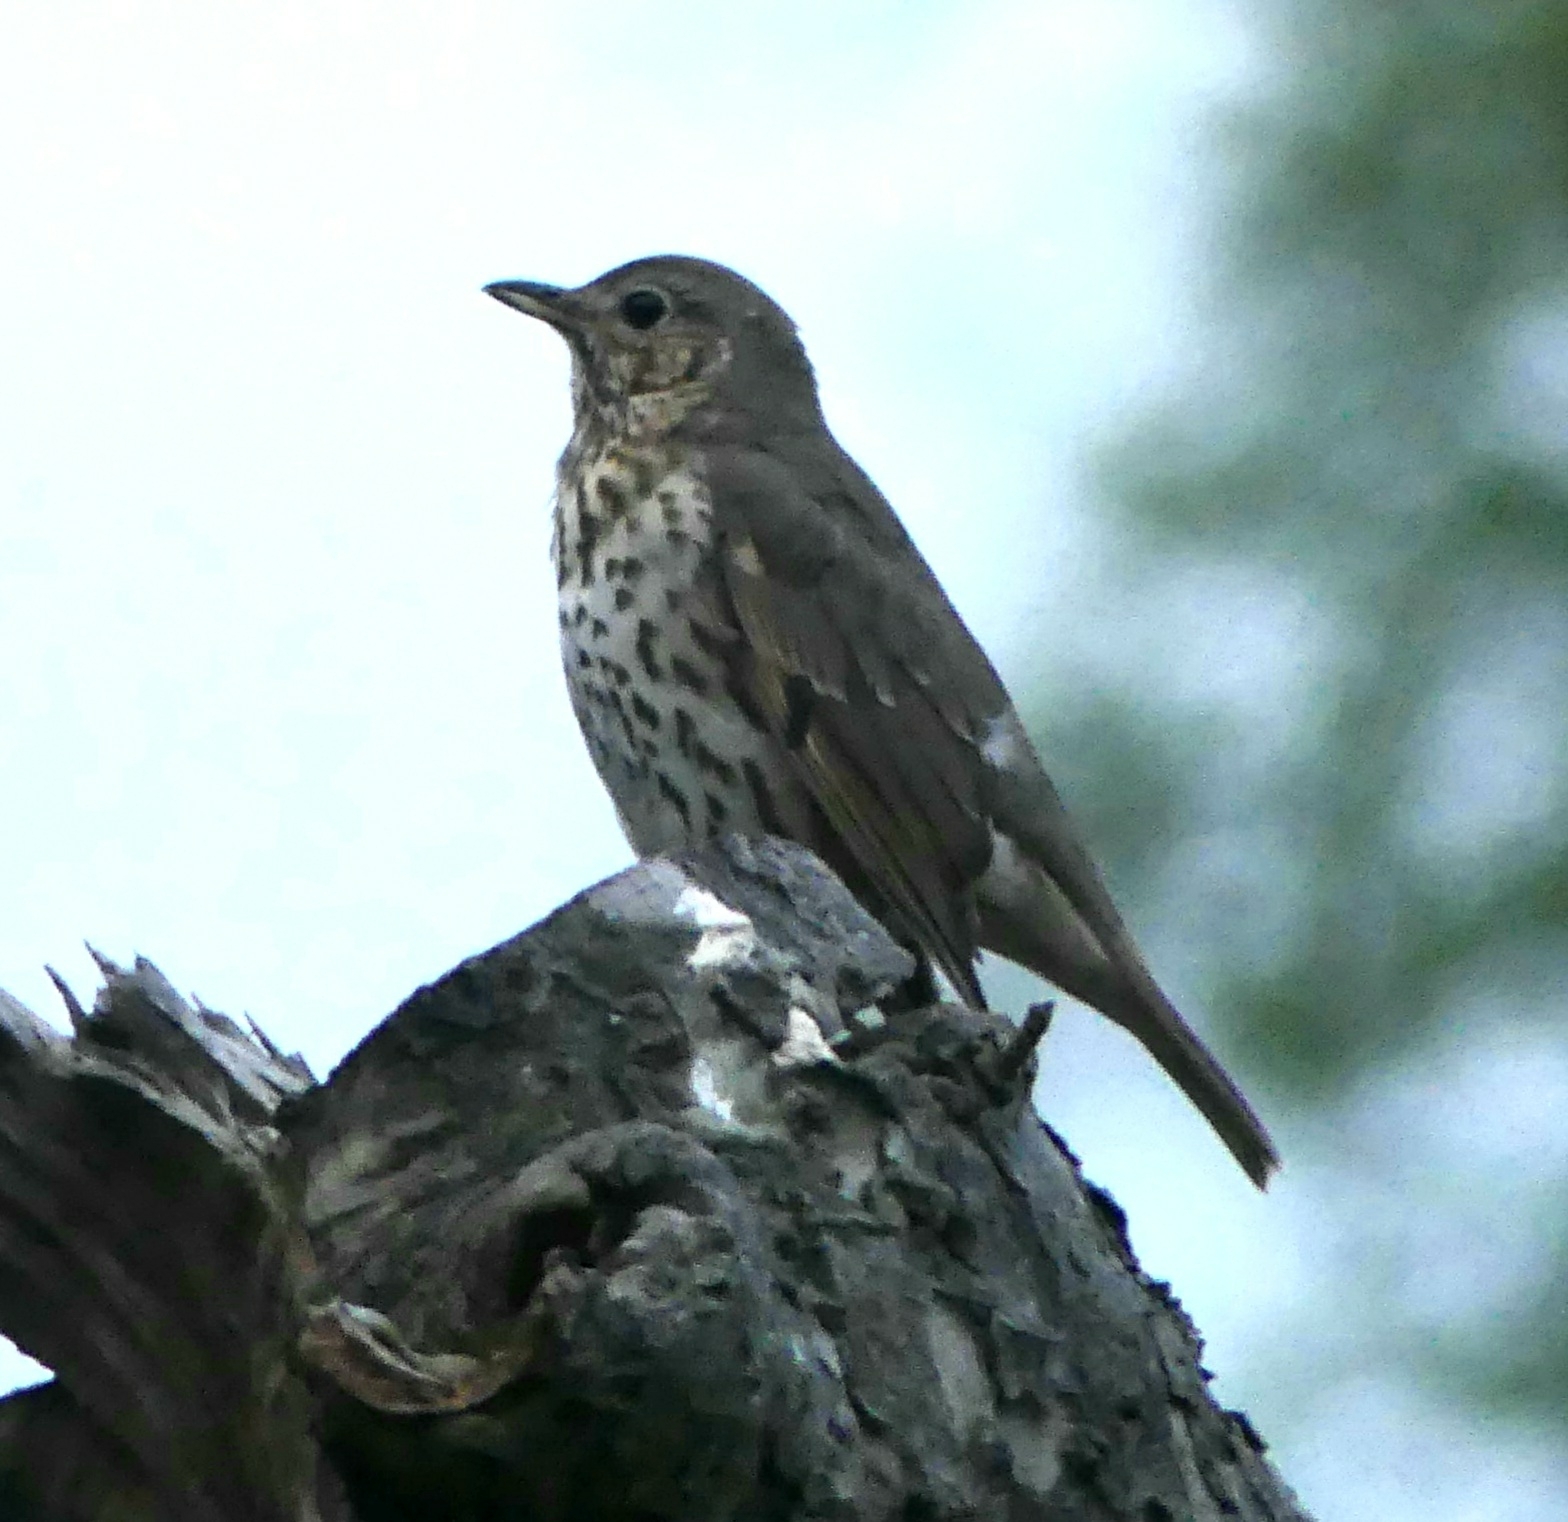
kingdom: Animalia
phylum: Chordata
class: Aves
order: Passeriformes
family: Turdidae
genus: Turdus
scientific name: Turdus philomelos
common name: Song thrush
